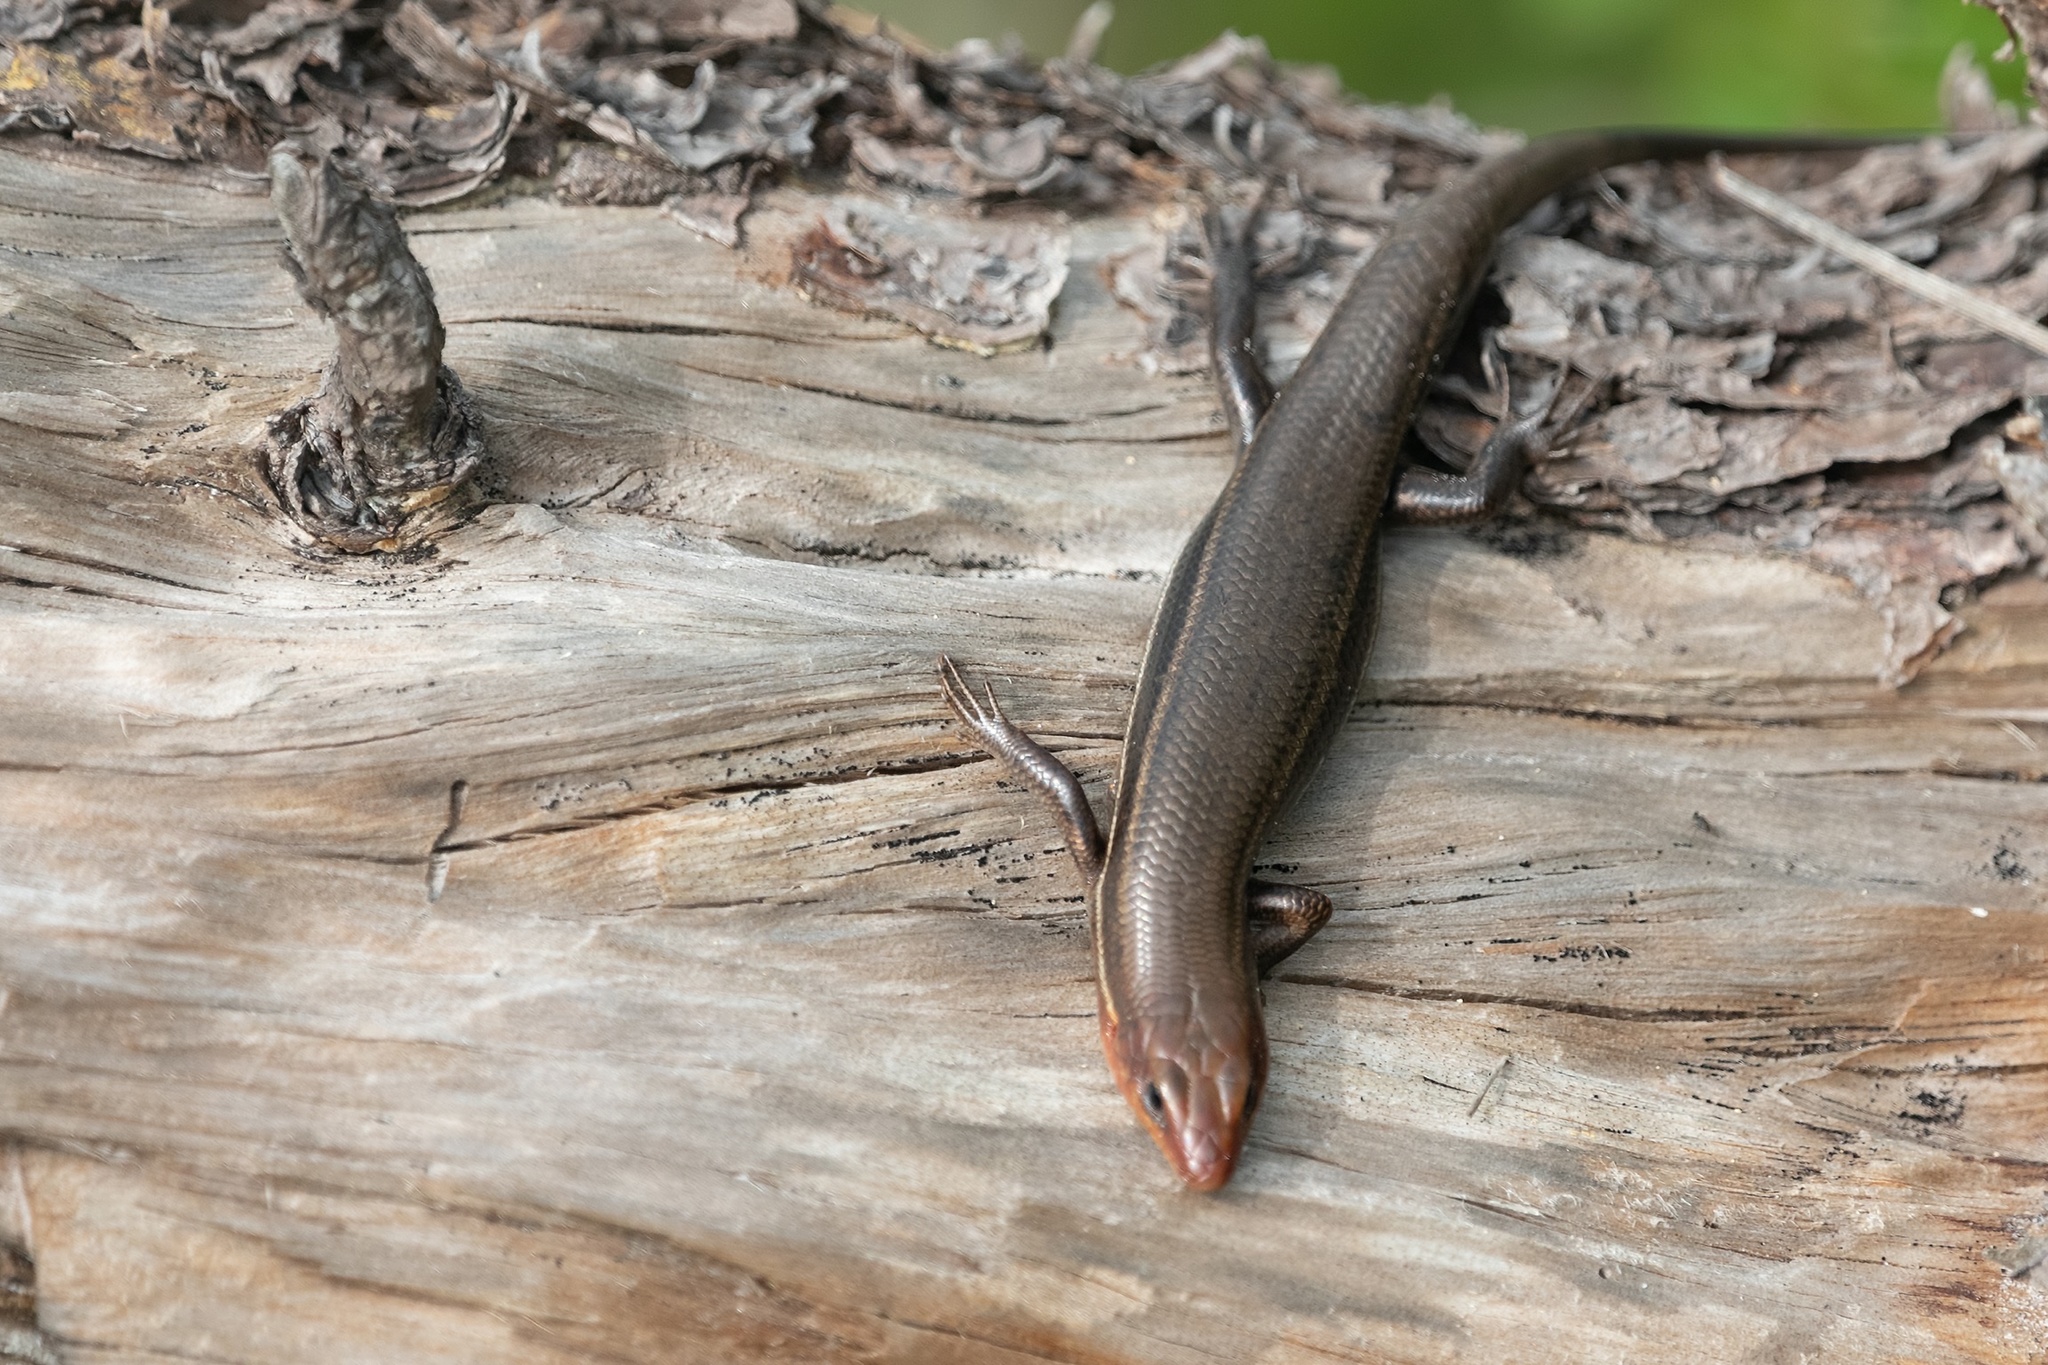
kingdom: Animalia
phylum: Chordata
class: Squamata
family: Scincidae
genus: Plestiodon
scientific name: Plestiodon inexpectatus
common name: Southeastern five-lined skink
